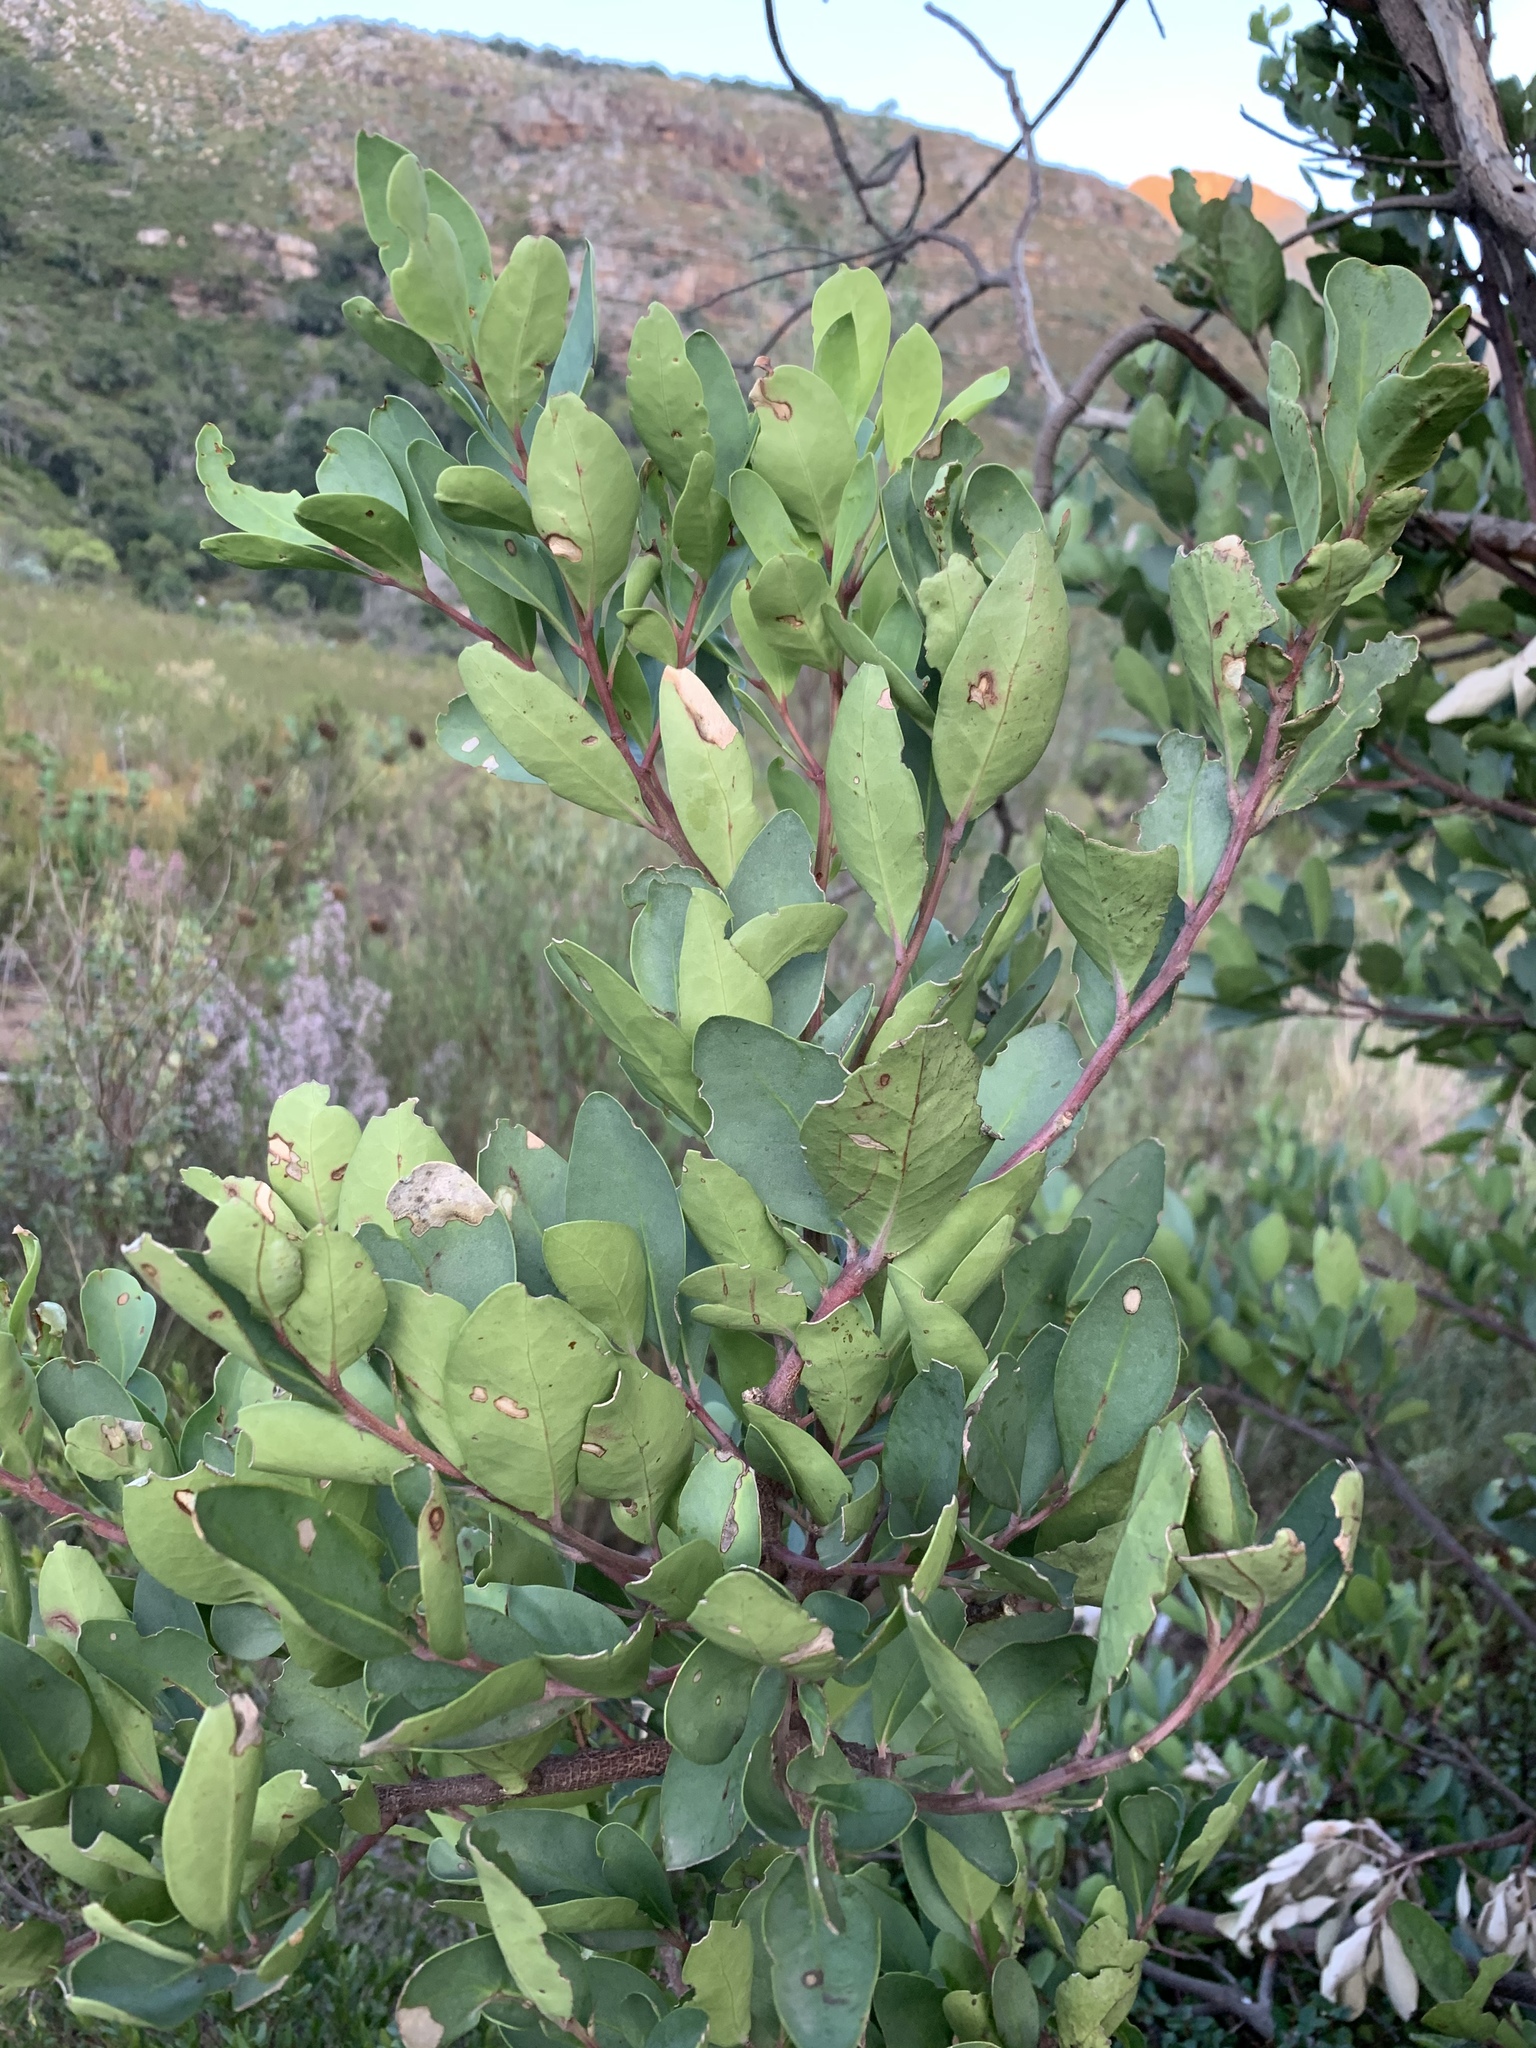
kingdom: Plantae
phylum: Tracheophyta
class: Magnoliopsida
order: Celastrales
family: Celastraceae
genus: Gymnosporia
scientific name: Gymnosporia laurina
